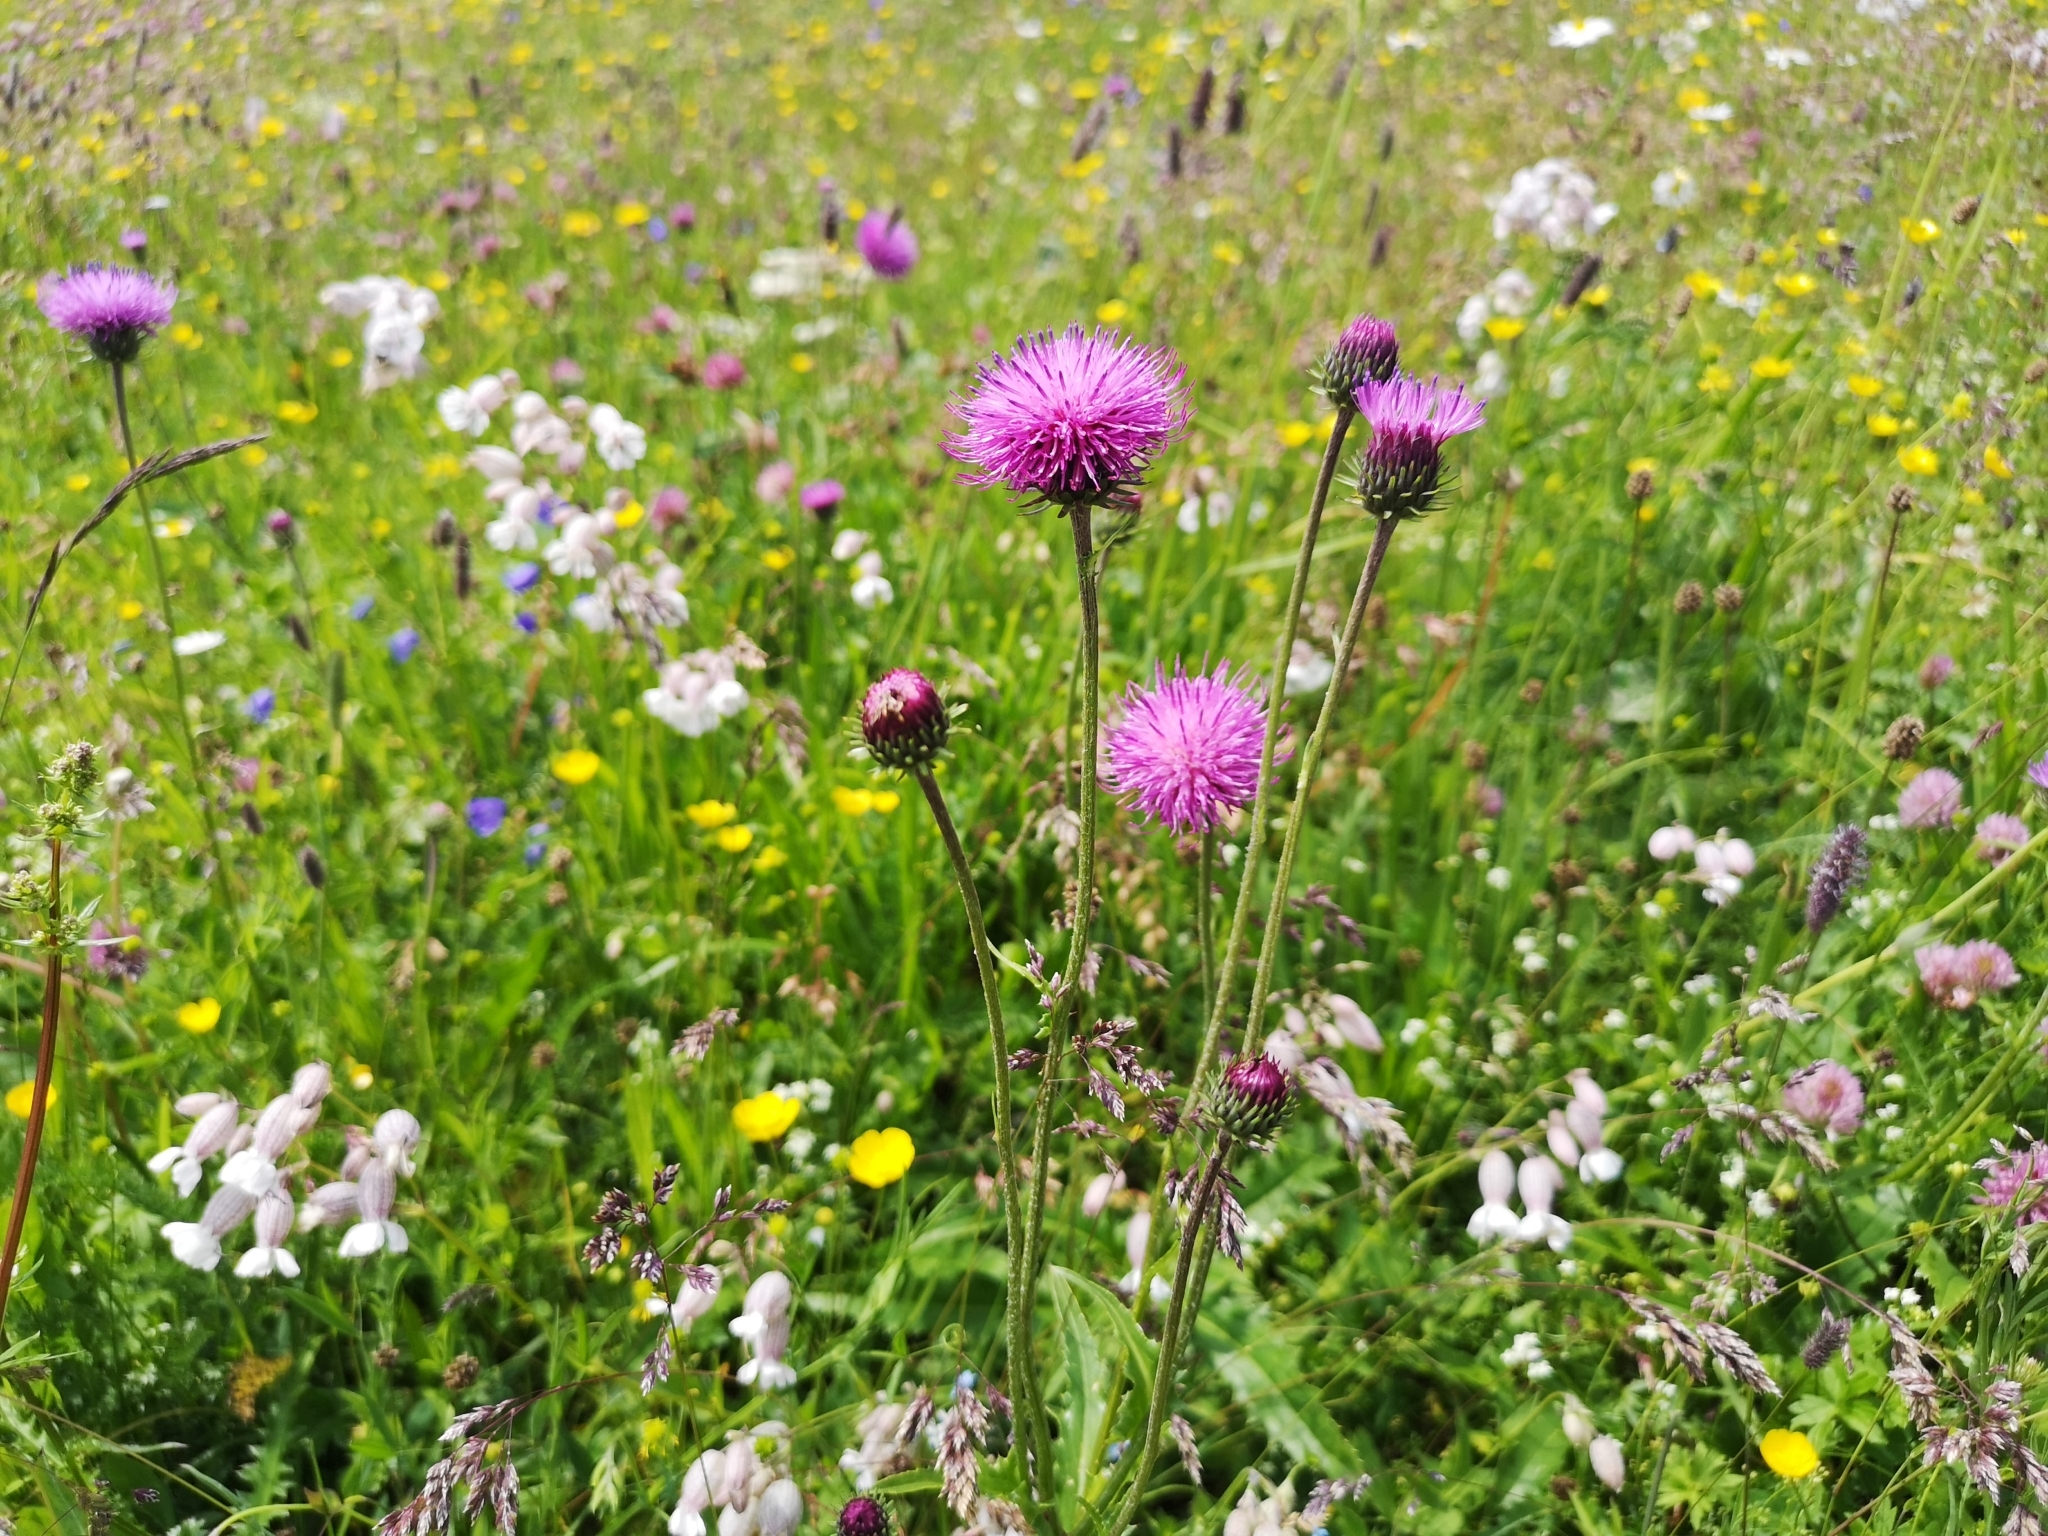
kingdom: Plantae
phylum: Tracheophyta
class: Magnoliopsida
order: Asterales
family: Asteraceae
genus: Carduus
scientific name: Carduus defloratus
